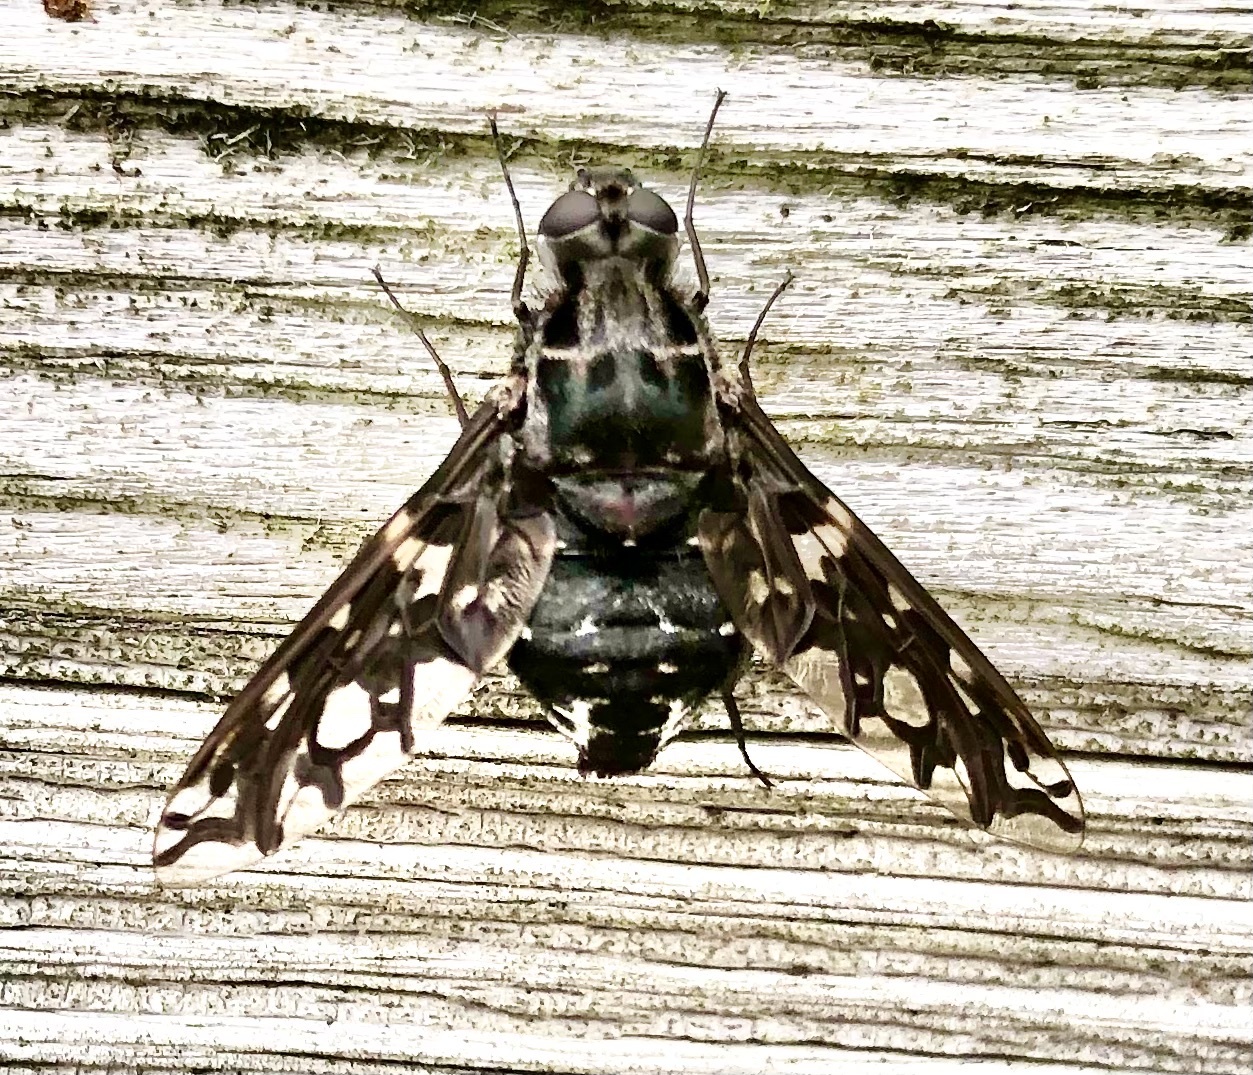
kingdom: Animalia
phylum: Arthropoda
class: Insecta
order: Diptera
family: Bombyliidae
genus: Xenox
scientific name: Xenox tigrinus
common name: Tiger bee fly
